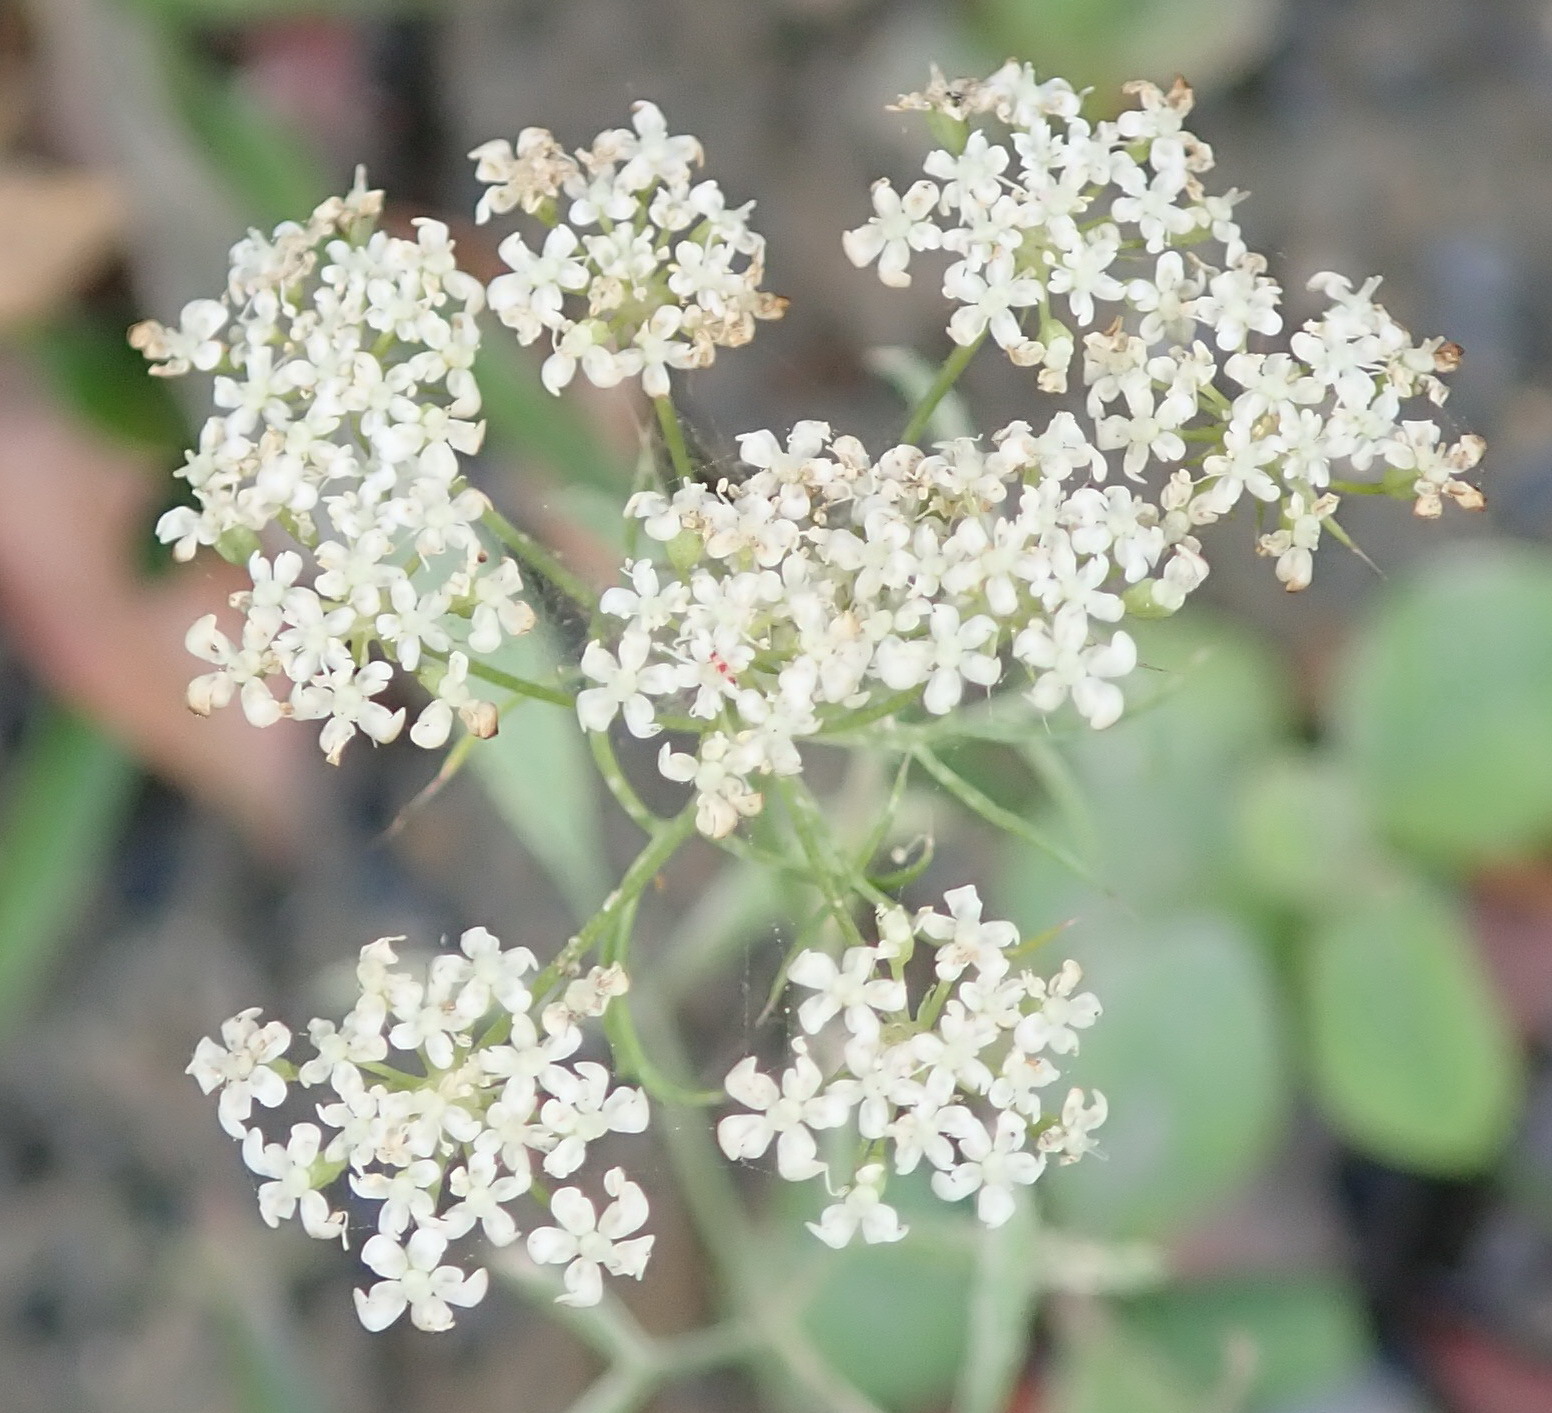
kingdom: Plantae
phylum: Tracheophyta
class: Magnoliopsida
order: Apiales
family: Apiaceae
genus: Ammi
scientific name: Ammi majus
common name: Bullwort
